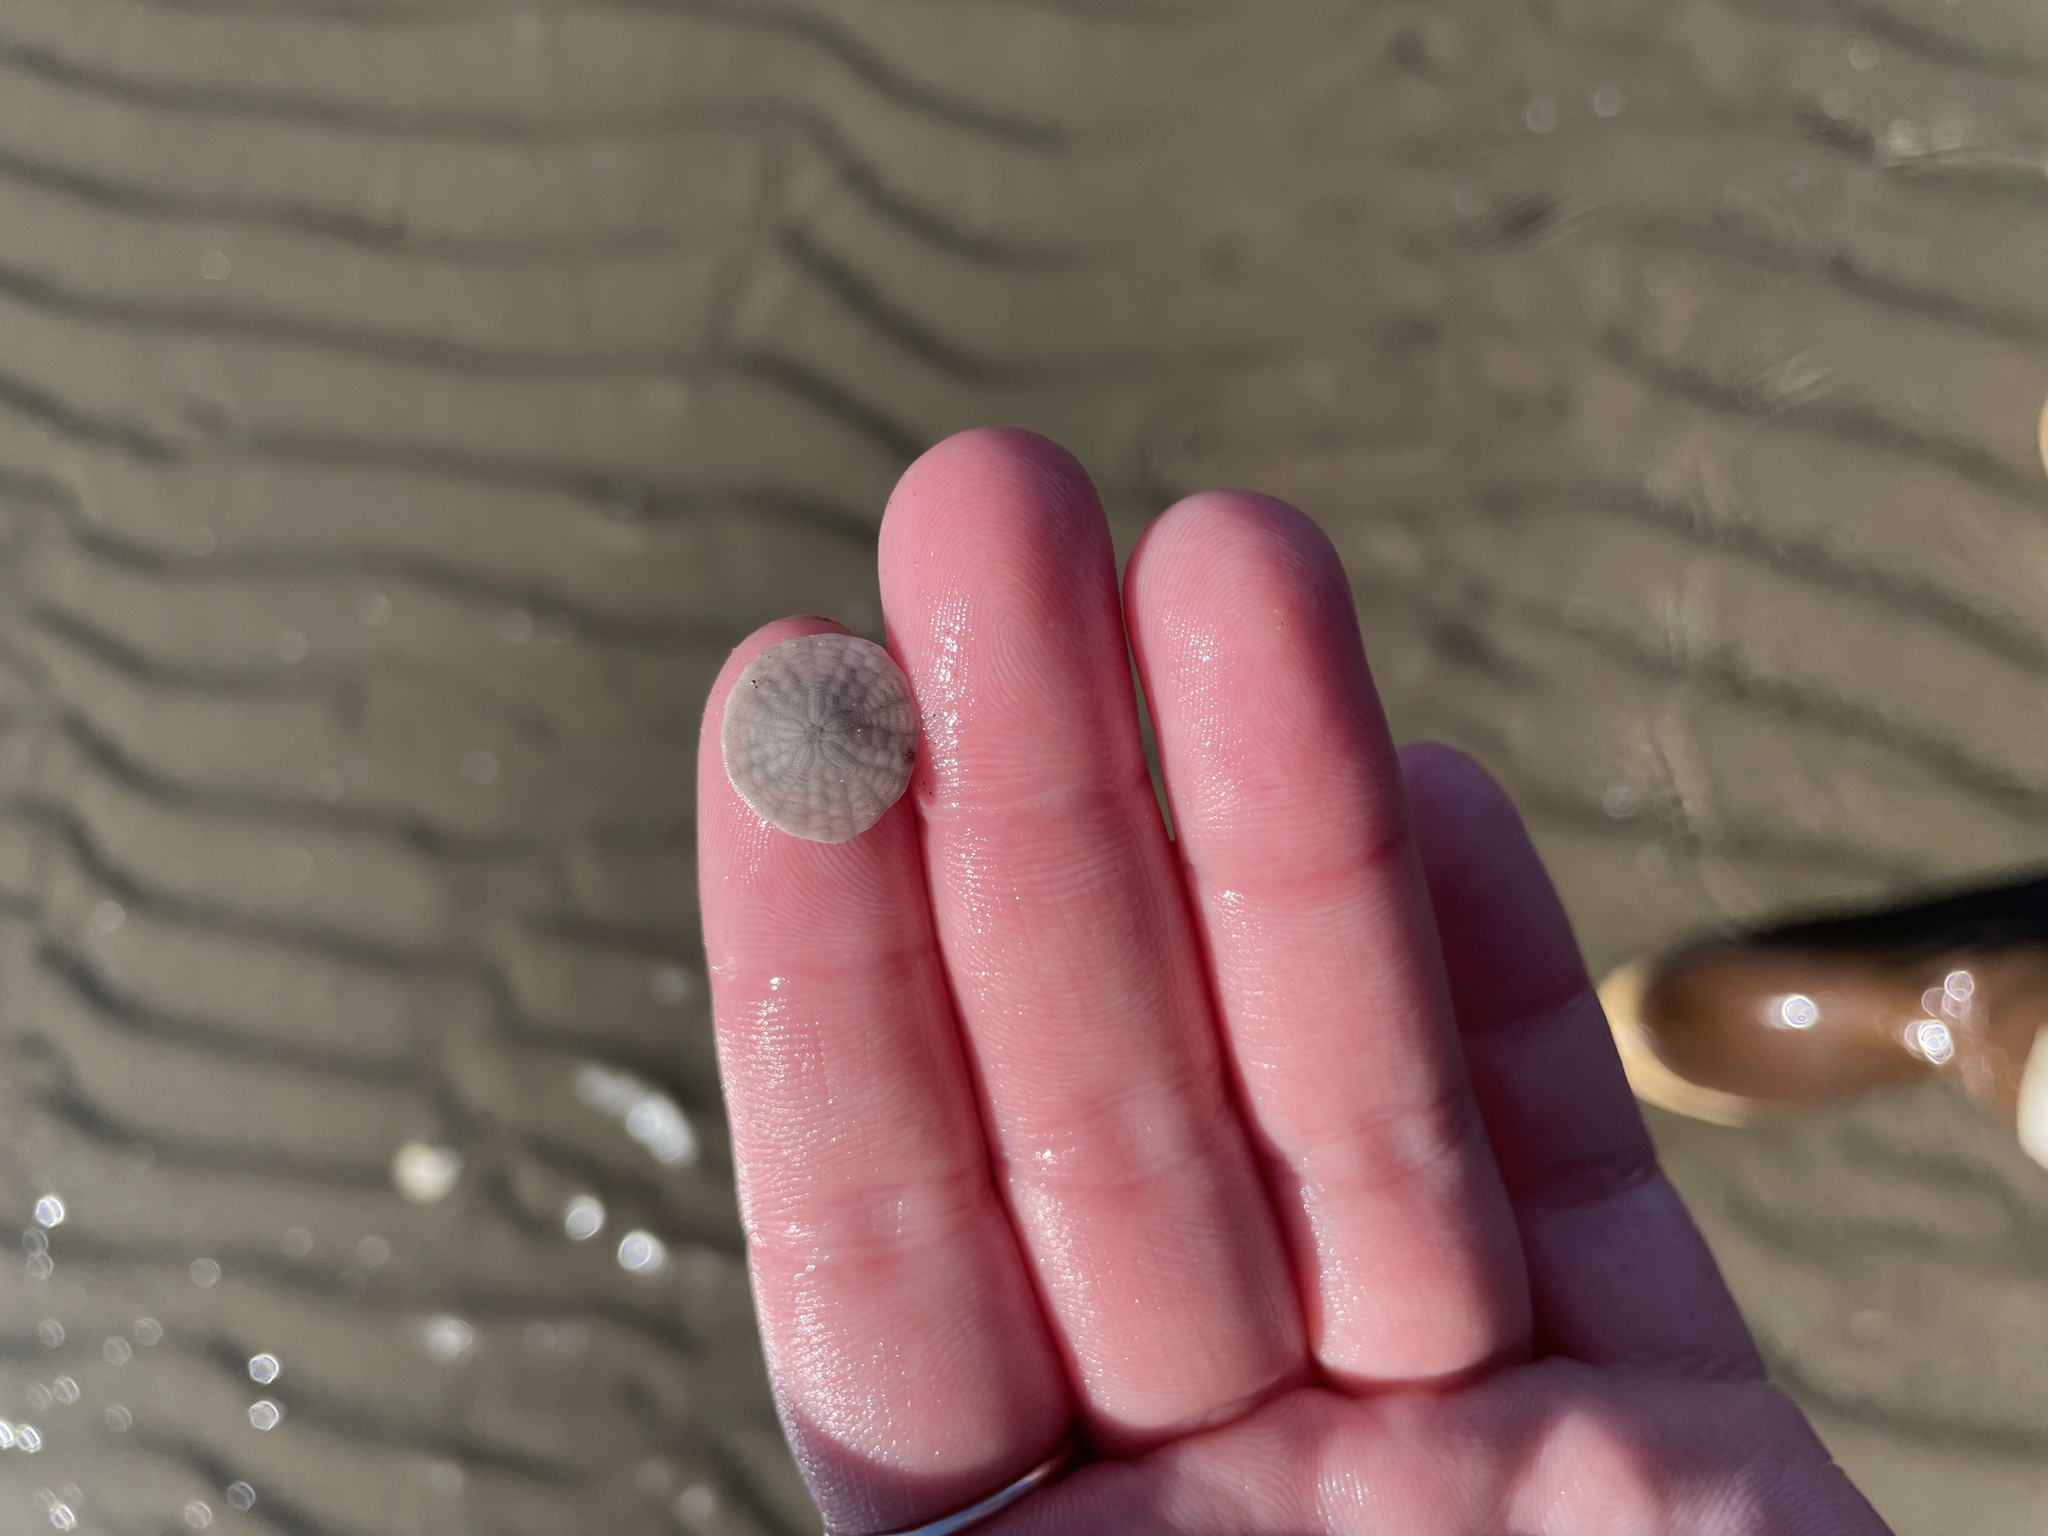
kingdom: Animalia
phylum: Echinodermata
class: Echinoidea
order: Echinolampadacea
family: Echinarachniidae
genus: Echinarachnius
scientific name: Echinarachnius parma
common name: Common sand dollar
